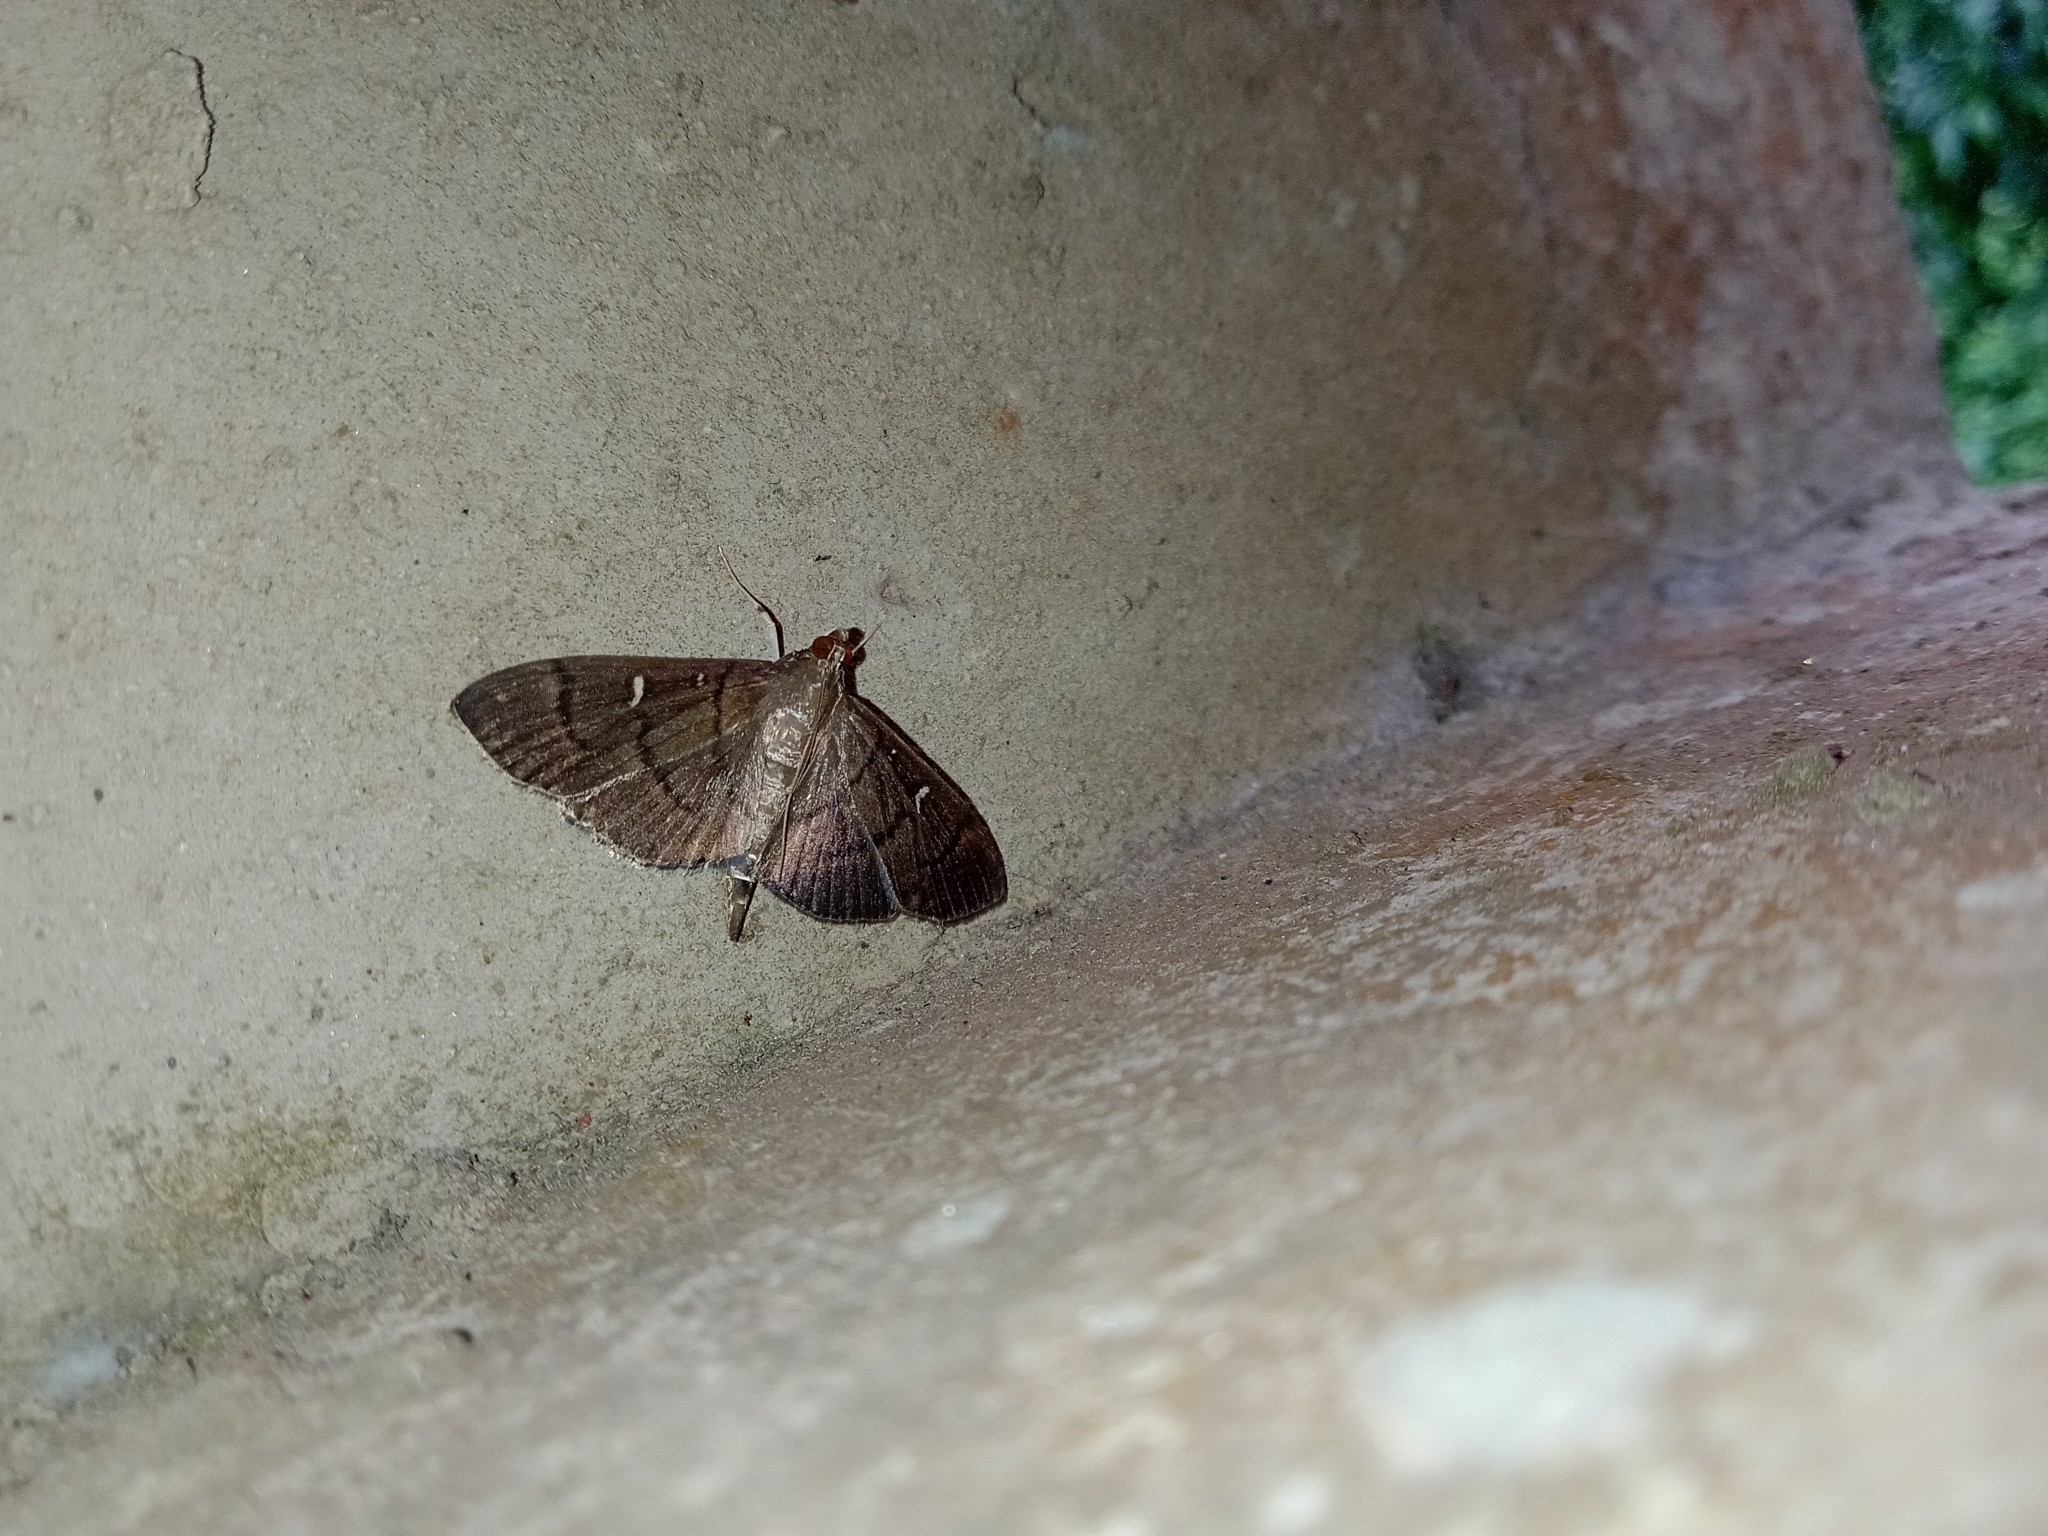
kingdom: Animalia
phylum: Arthropoda
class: Insecta
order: Lepidoptera
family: Crambidae
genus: Syllepte
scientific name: Syllepte
